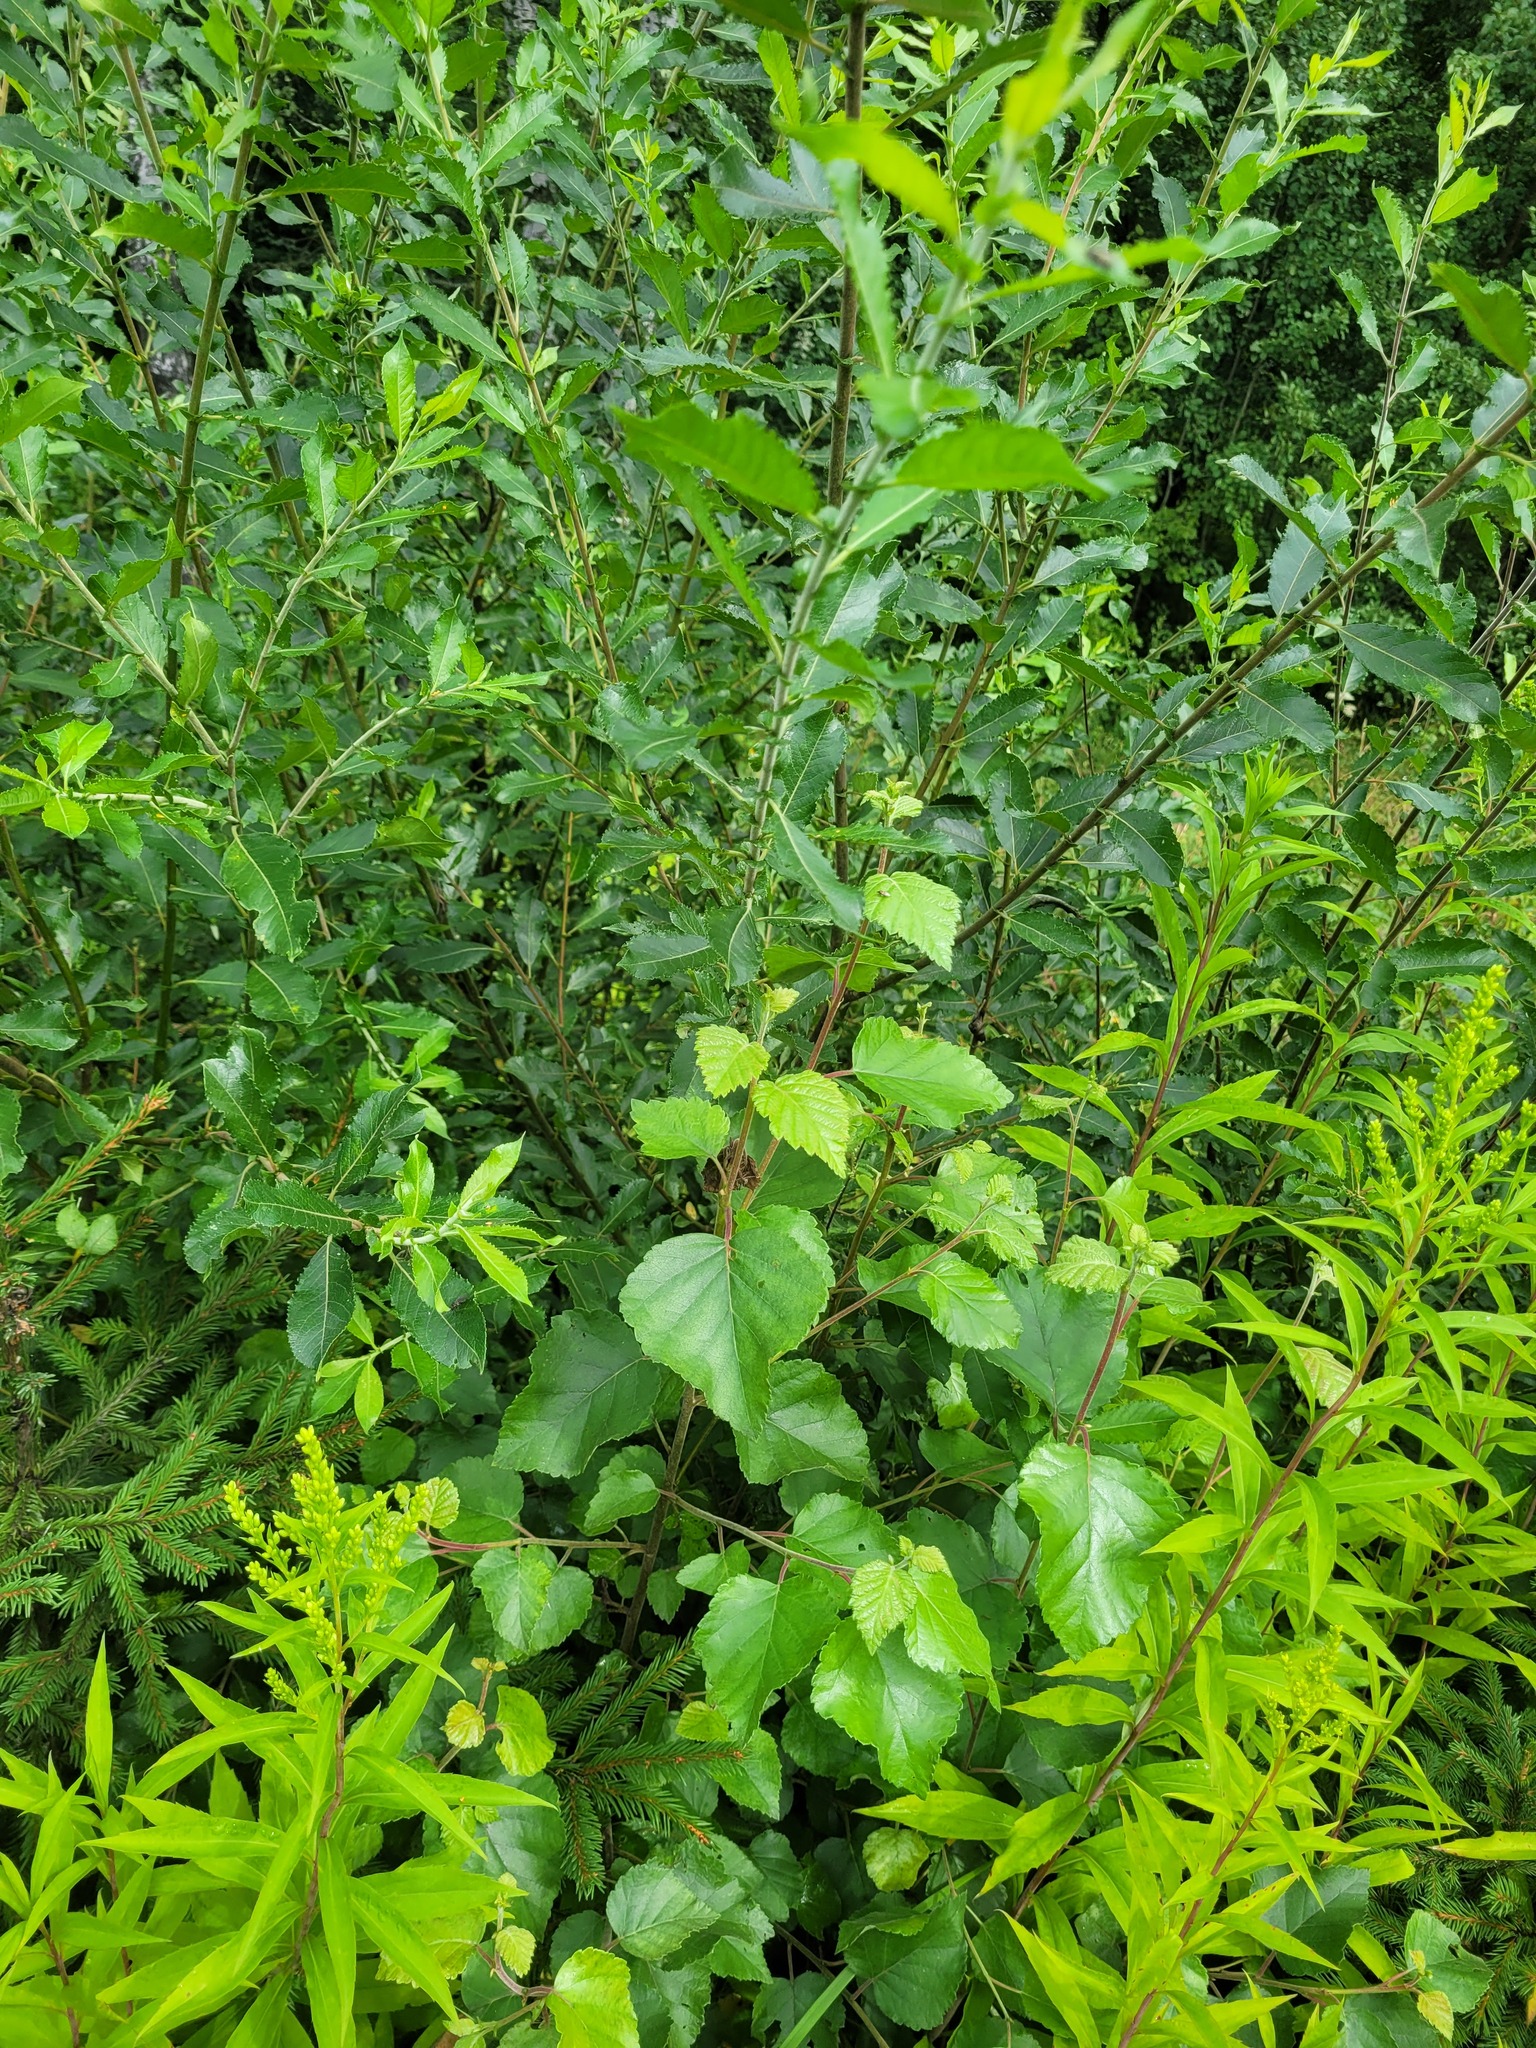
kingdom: Plantae
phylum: Tracheophyta
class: Magnoliopsida
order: Fagales
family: Betulaceae
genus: Betula
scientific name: Betula pubescens
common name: Downy birch
